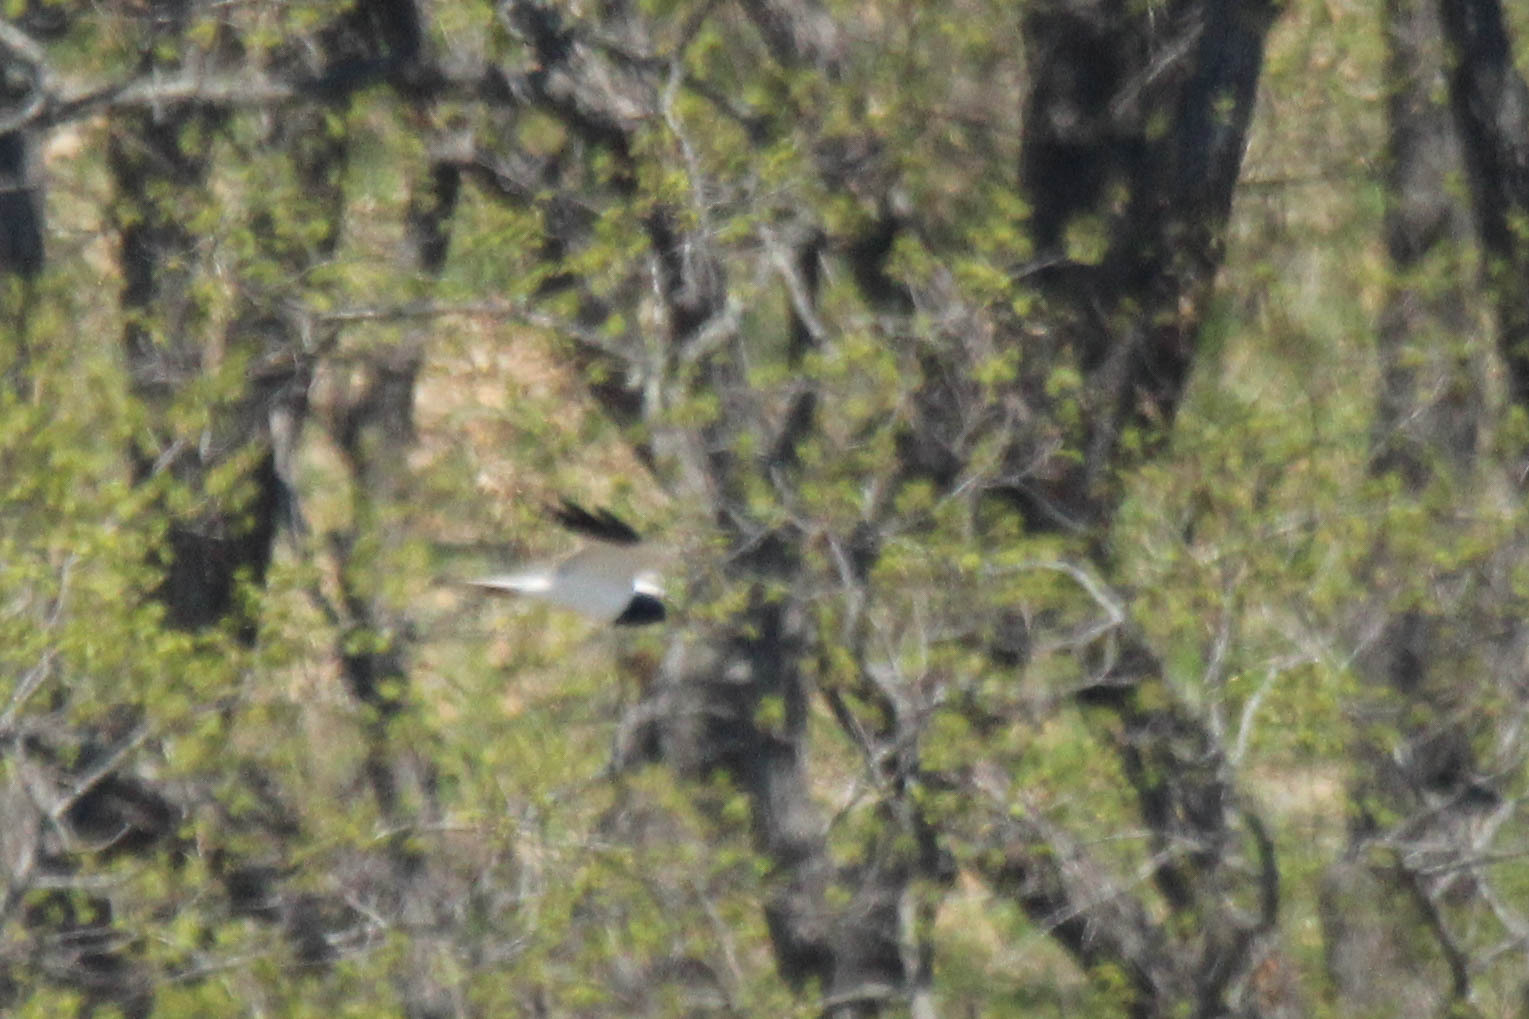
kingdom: Animalia
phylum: Chordata
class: Aves
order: Accipitriformes
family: Accipitridae
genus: Circus
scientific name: Circus melanoleucos
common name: Pied harrier
